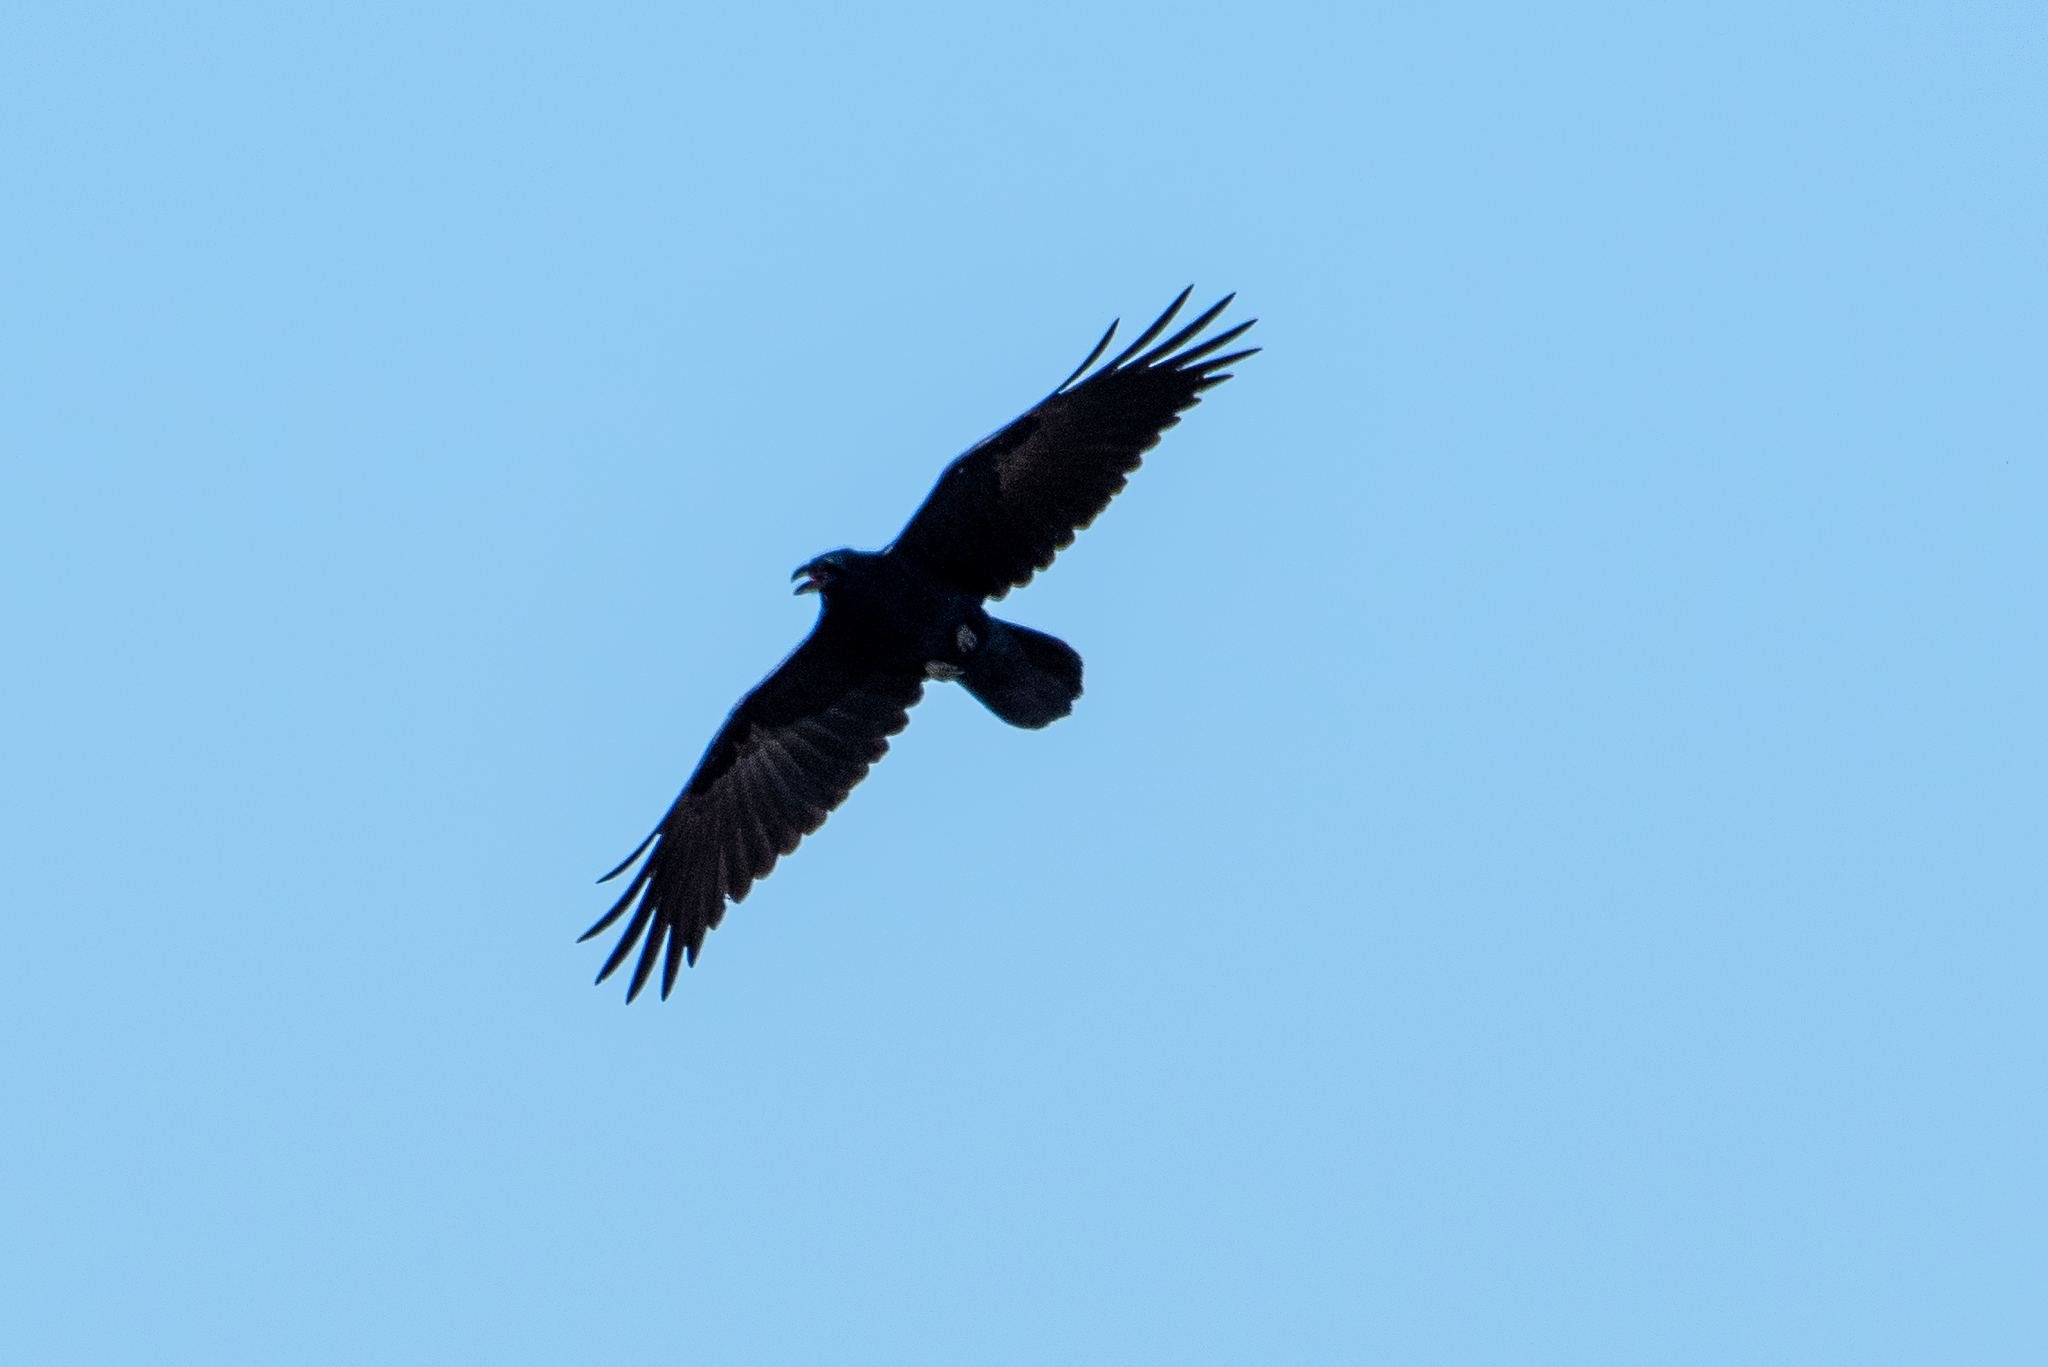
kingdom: Animalia
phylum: Chordata
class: Aves
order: Passeriformes
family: Corvidae
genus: Corvus
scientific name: Corvus corax
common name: Common raven
